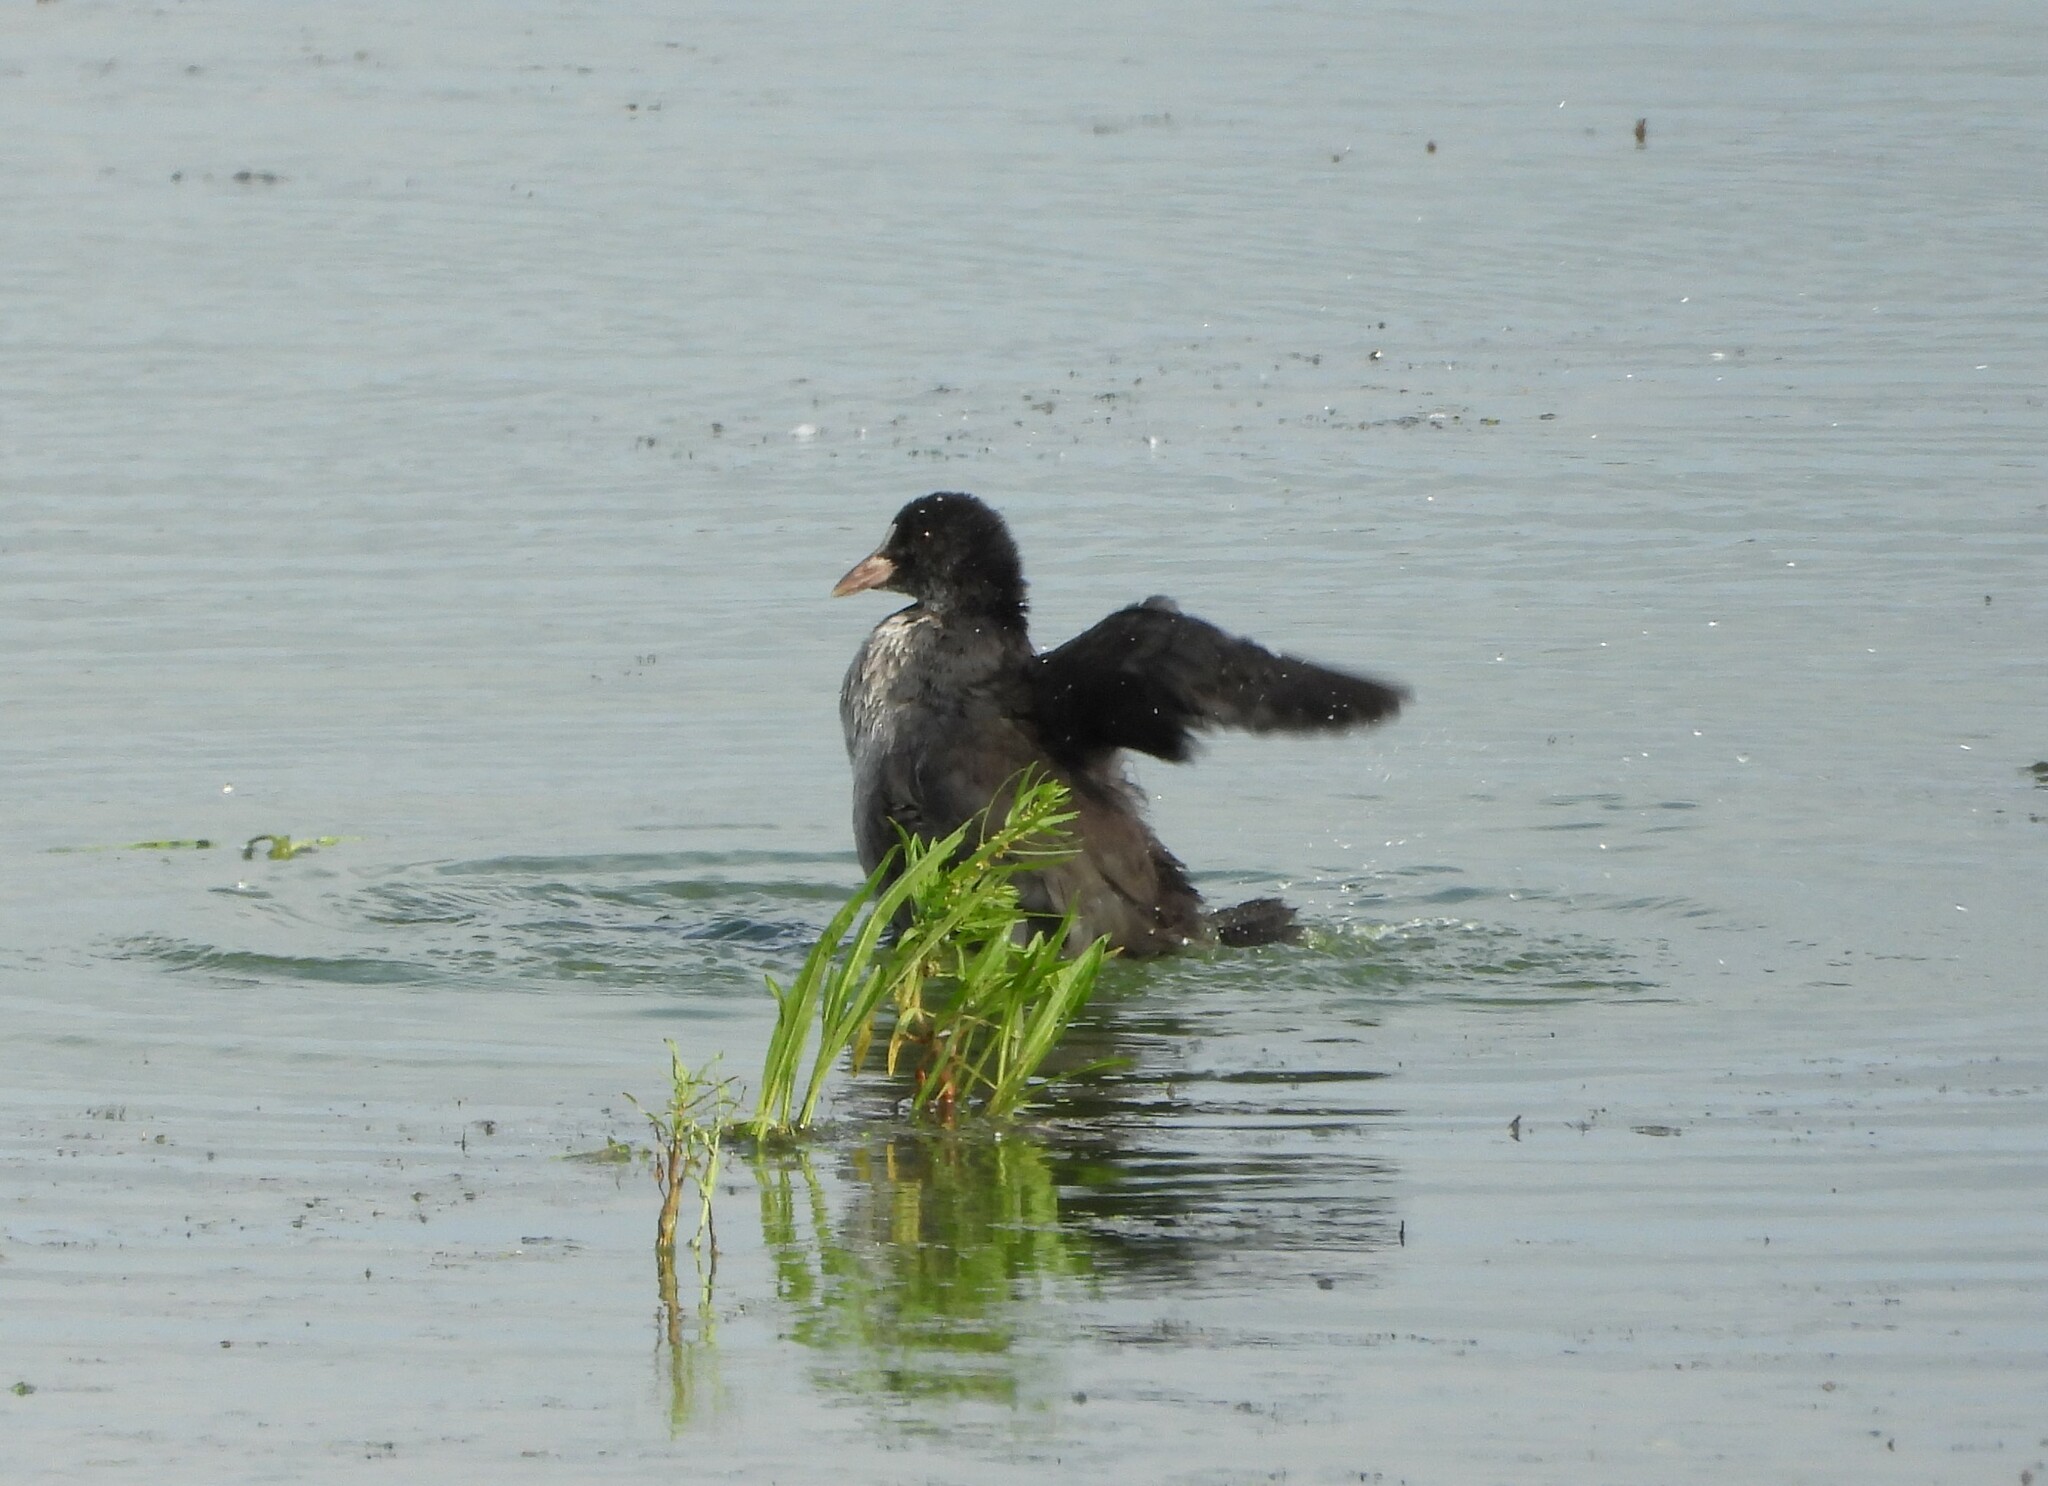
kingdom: Animalia
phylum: Chordata
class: Aves
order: Gruiformes
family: Rallidae
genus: Fulica
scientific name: Fulica atra
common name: Eurasian coot
